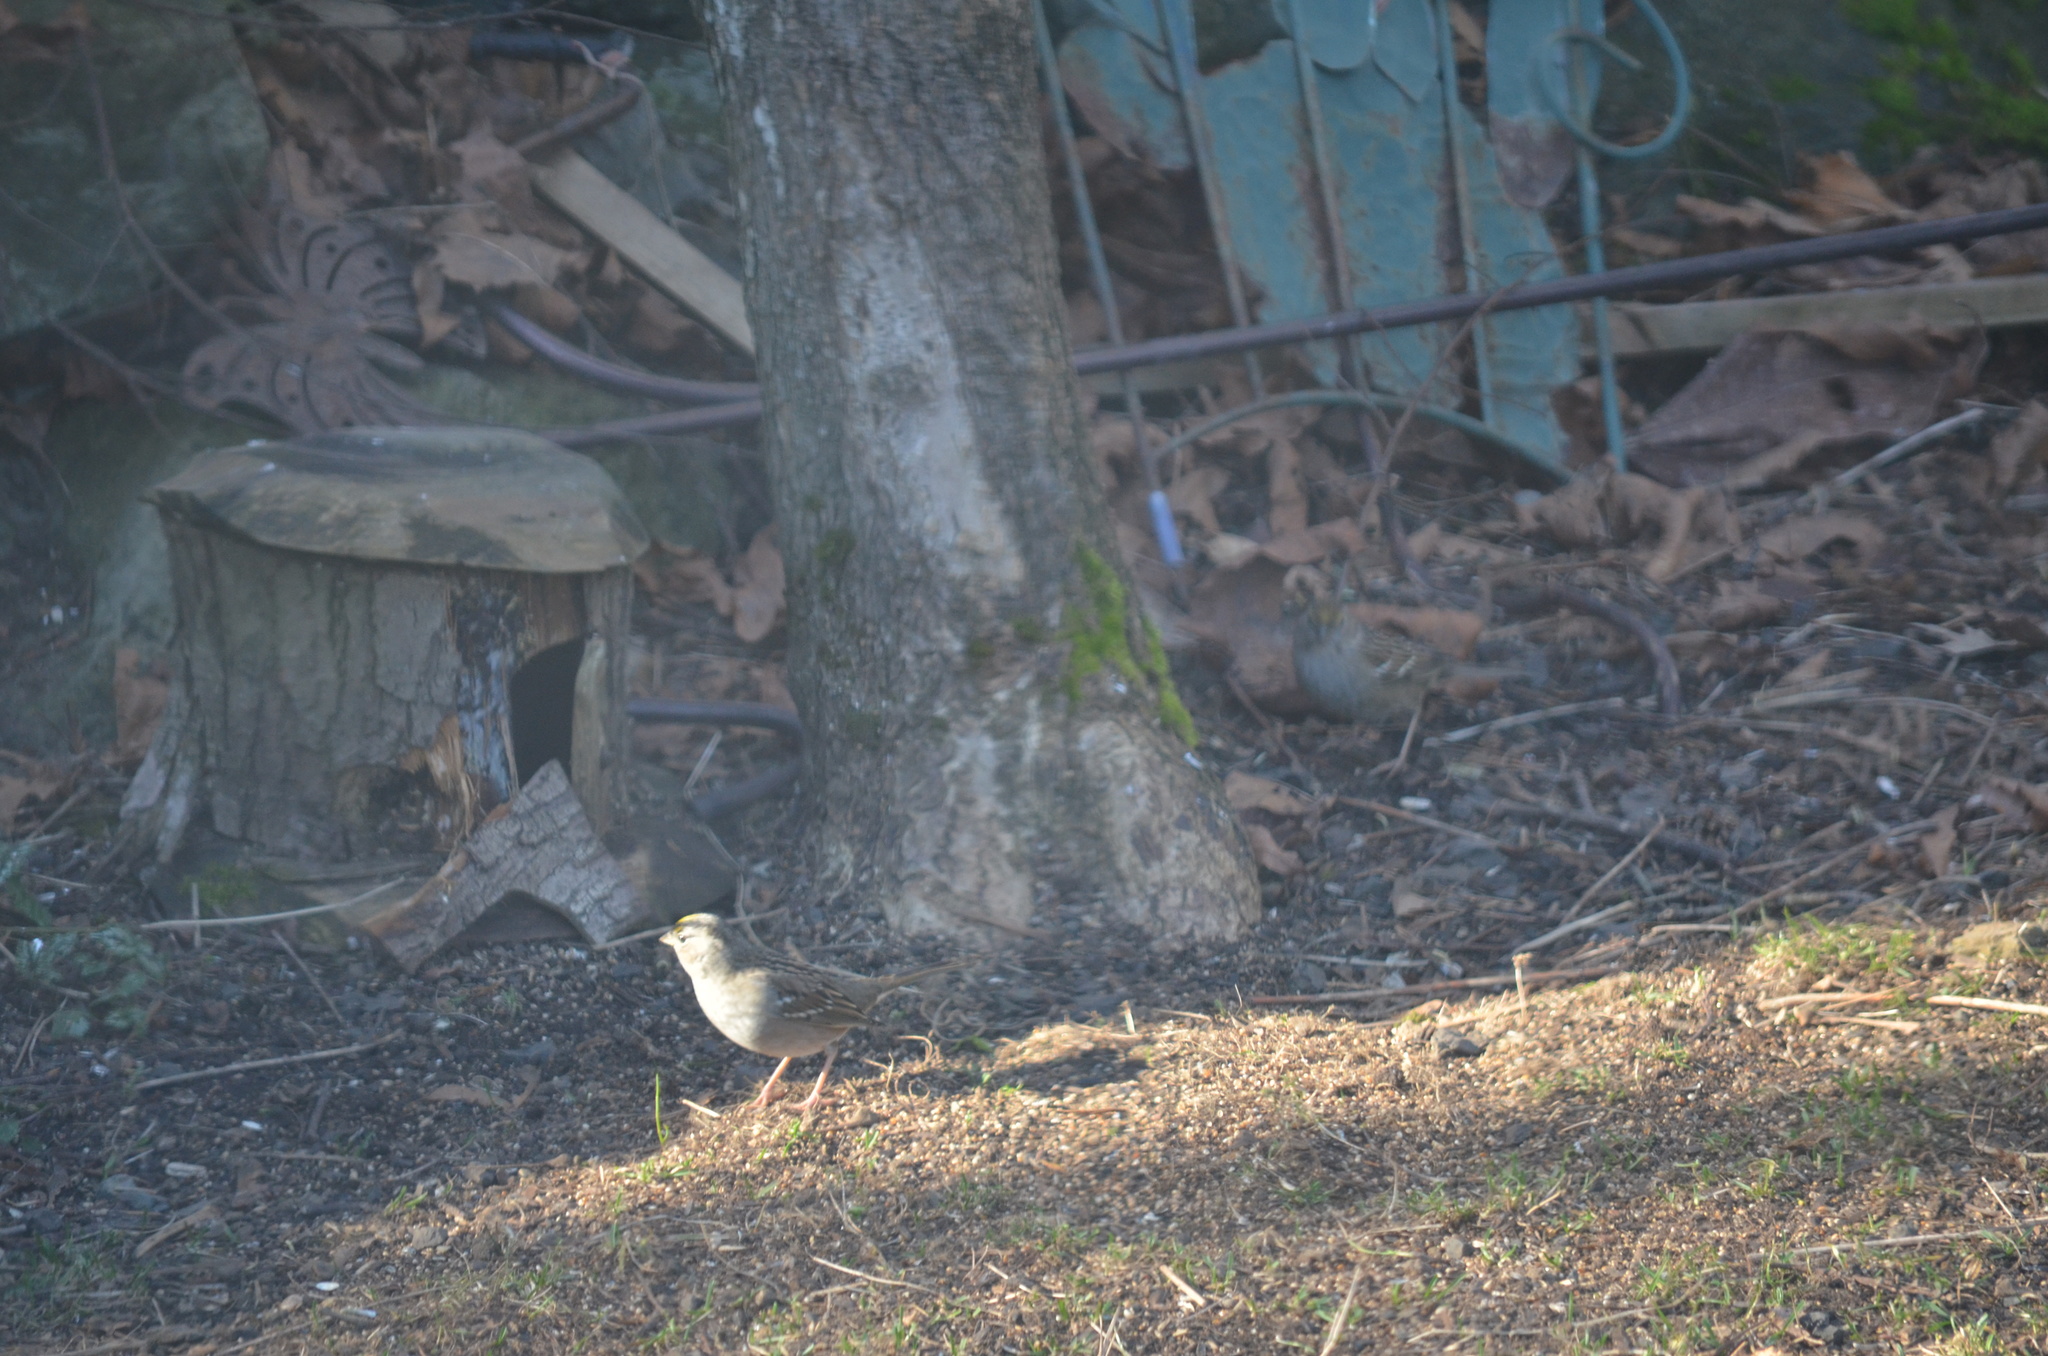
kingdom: Animalia
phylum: Chordata
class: Aves
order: Passeriformes
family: Passerellidae
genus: Zonotrichia
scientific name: Zonotrichia atricapilla
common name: Golden-crowned sparrow
